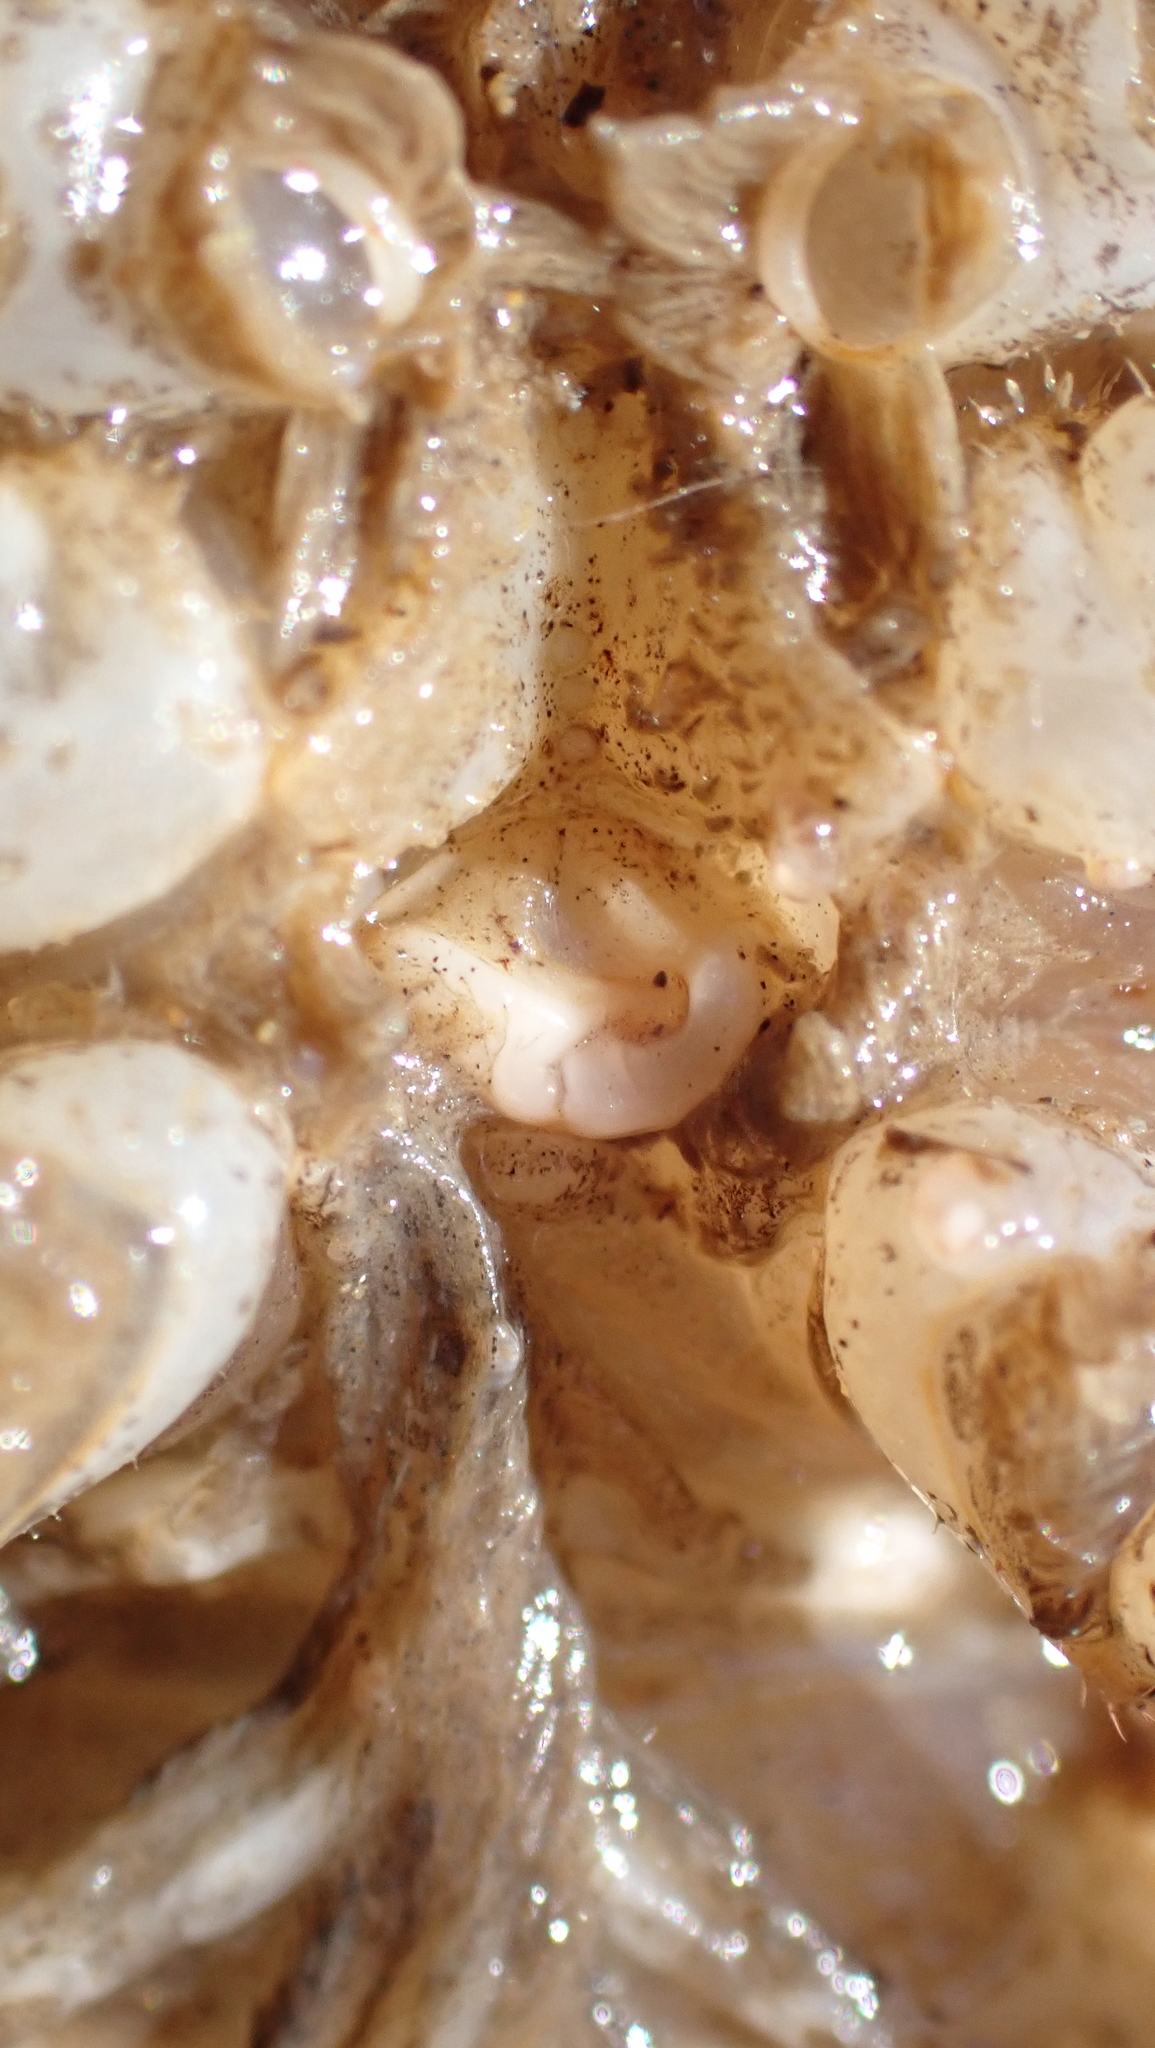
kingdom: Animalia
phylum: Arthropoda
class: Malacostraca
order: Decapoda
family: Cambaridae
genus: Cambarus
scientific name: Cambarus sphenoides
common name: Triangleclaw crayfish
